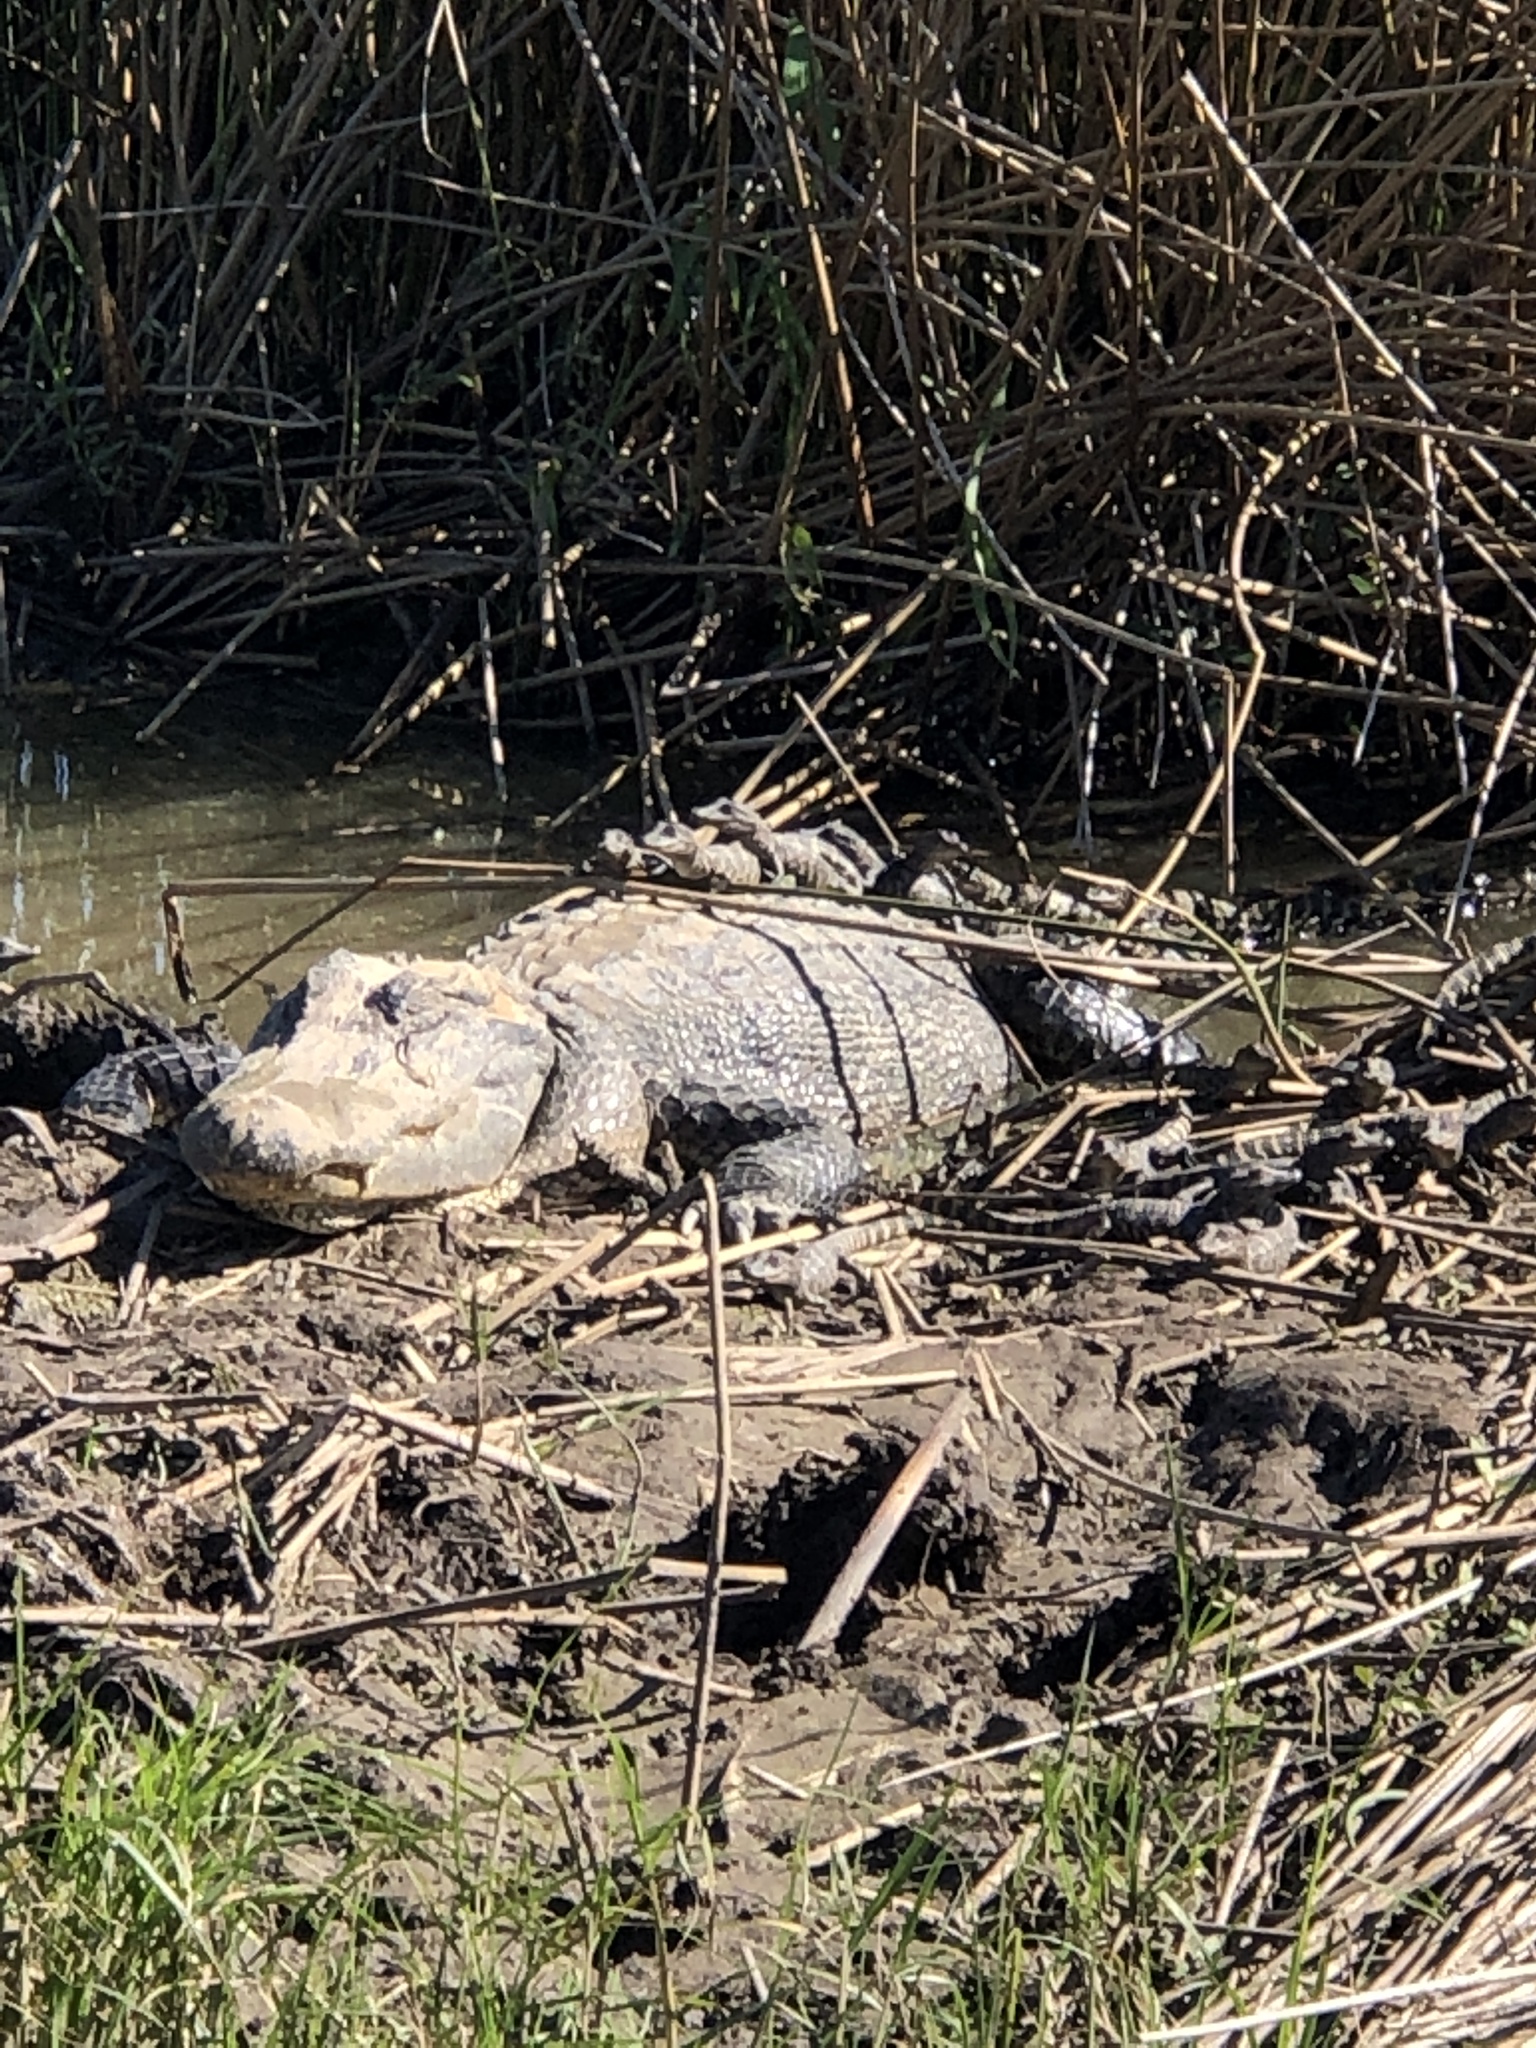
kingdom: Animalia
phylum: Chordata
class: Crocodylia
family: Alligatoridae
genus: Alligator
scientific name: Alligator mississippiensis
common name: American alligator
